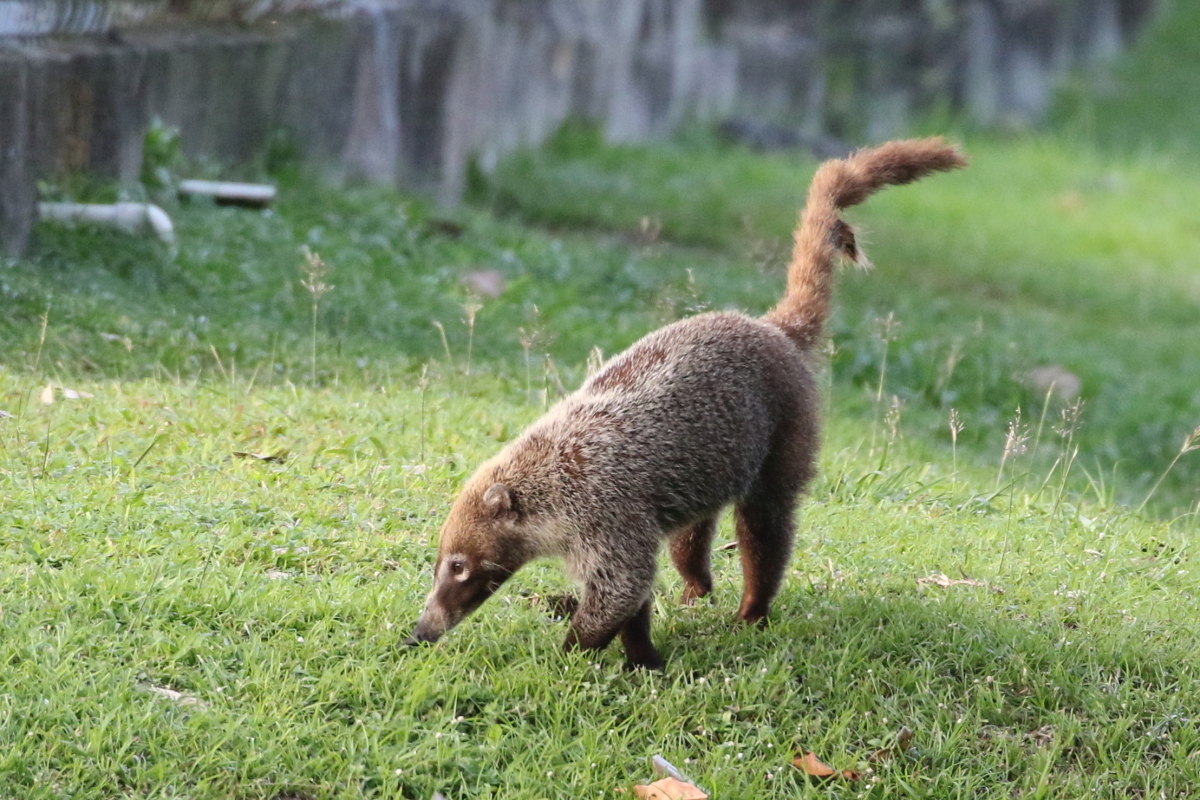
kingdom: Animalia
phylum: Chordata
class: Mammalia
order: Carnivora
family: Procyonidae
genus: Nasua
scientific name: Nasua narica
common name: White-nosed coati
